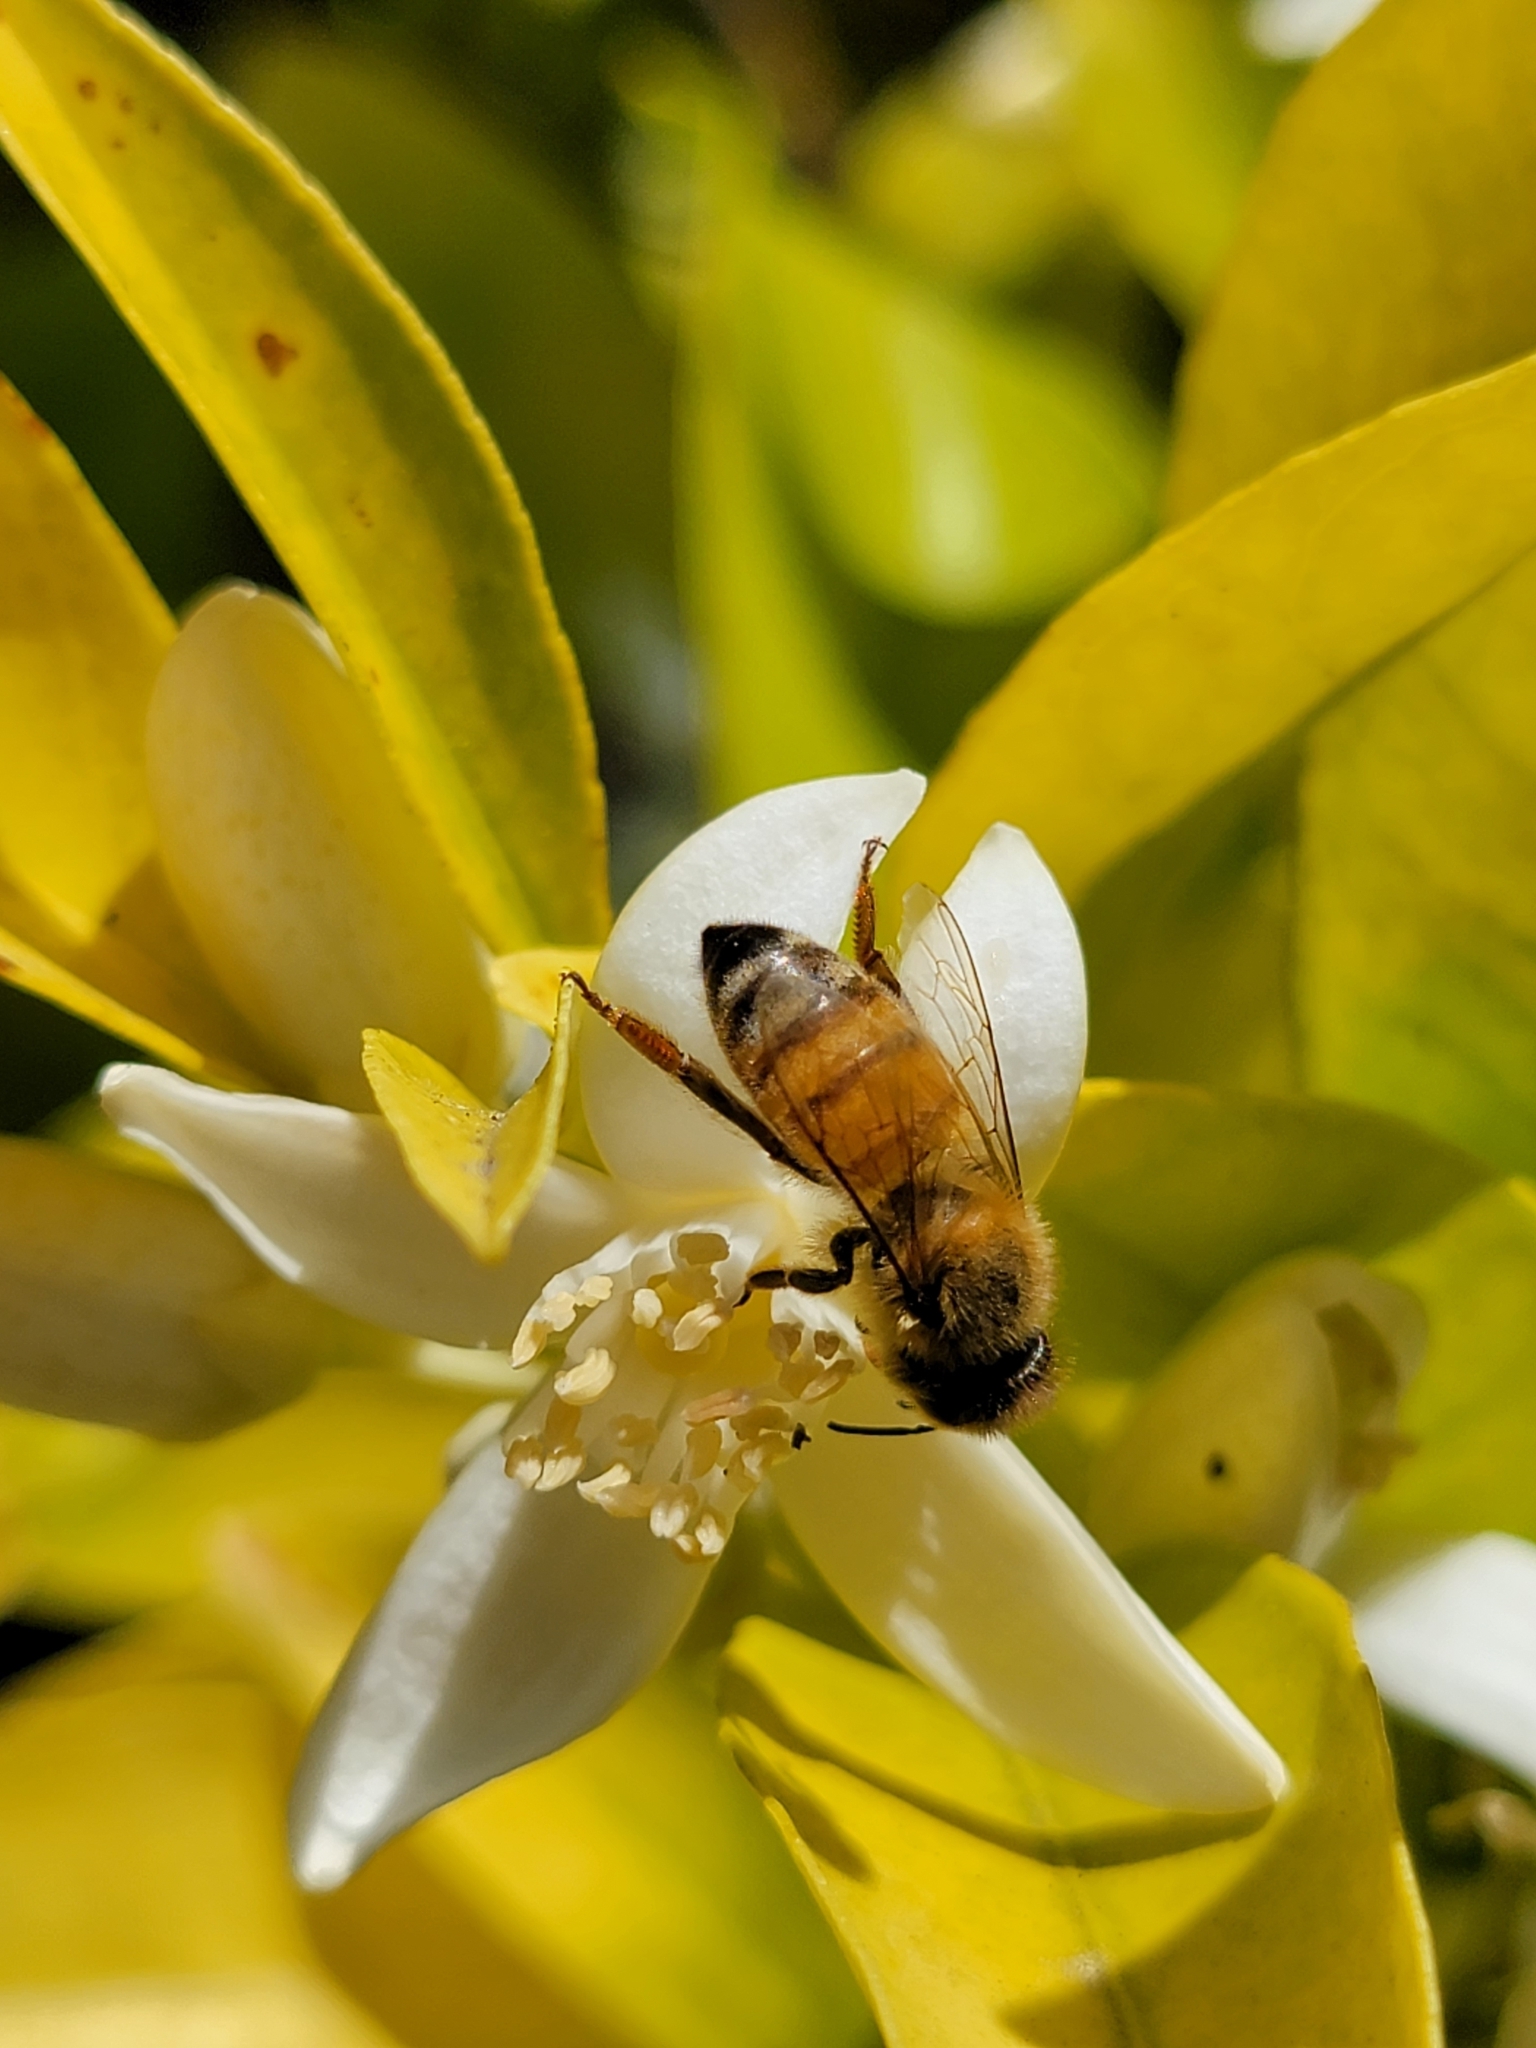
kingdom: Animalia
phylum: Arthropoda
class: Insecta
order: Hymenoptera
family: Apidae
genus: Apis
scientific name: Apis mellifera
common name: Honey bee
